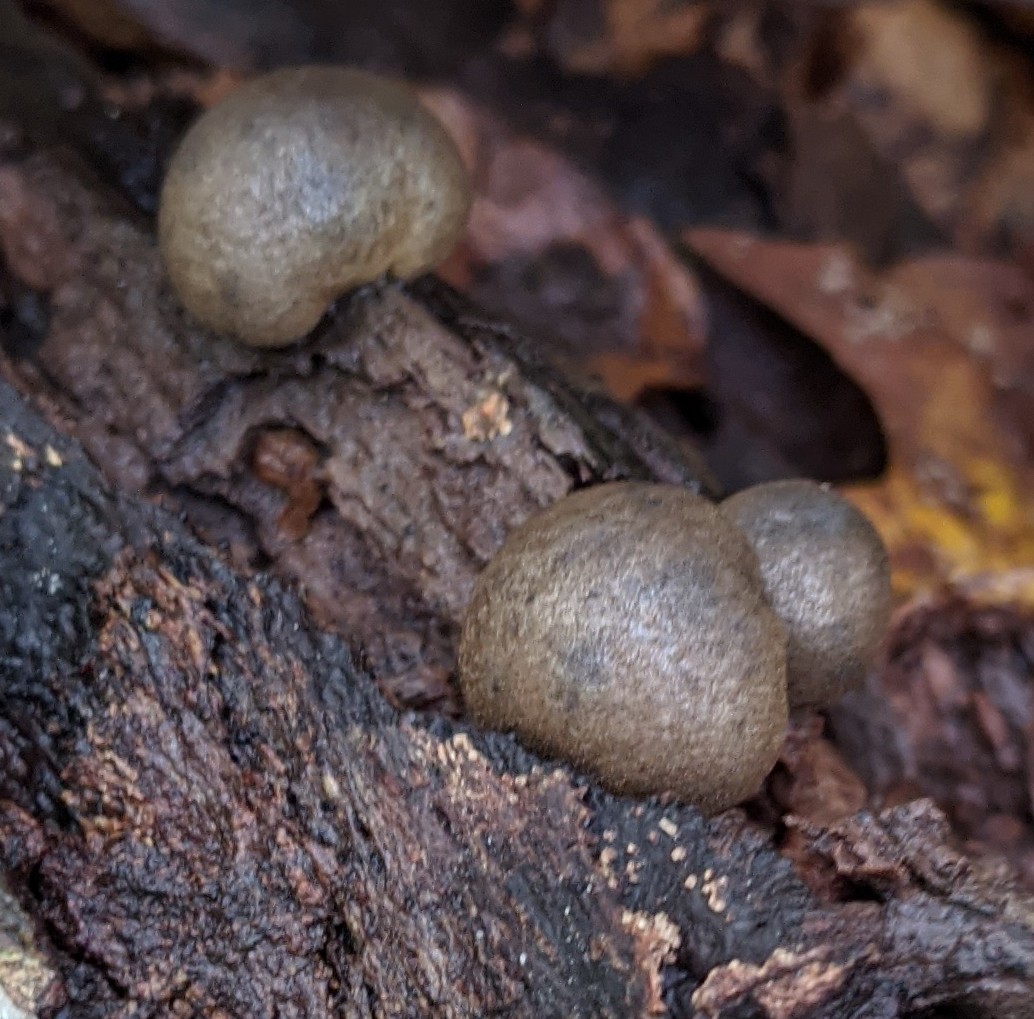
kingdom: Protozoa
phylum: Mycetozoa
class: Myxomycetes
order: Cribrariales
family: Tubiferaceae
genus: Lycogala
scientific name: Lycogala epidendrum
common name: Wolf's milk
